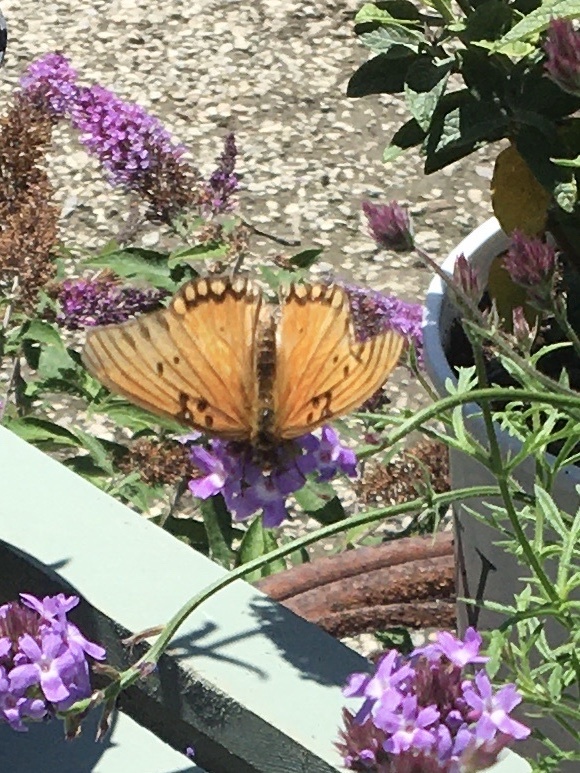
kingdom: Animalia
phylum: Arthropoda
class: Insecta
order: Lepidoptera
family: Nymphalidae
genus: Dione
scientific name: Dione vanillae
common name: Gulf fritillary
